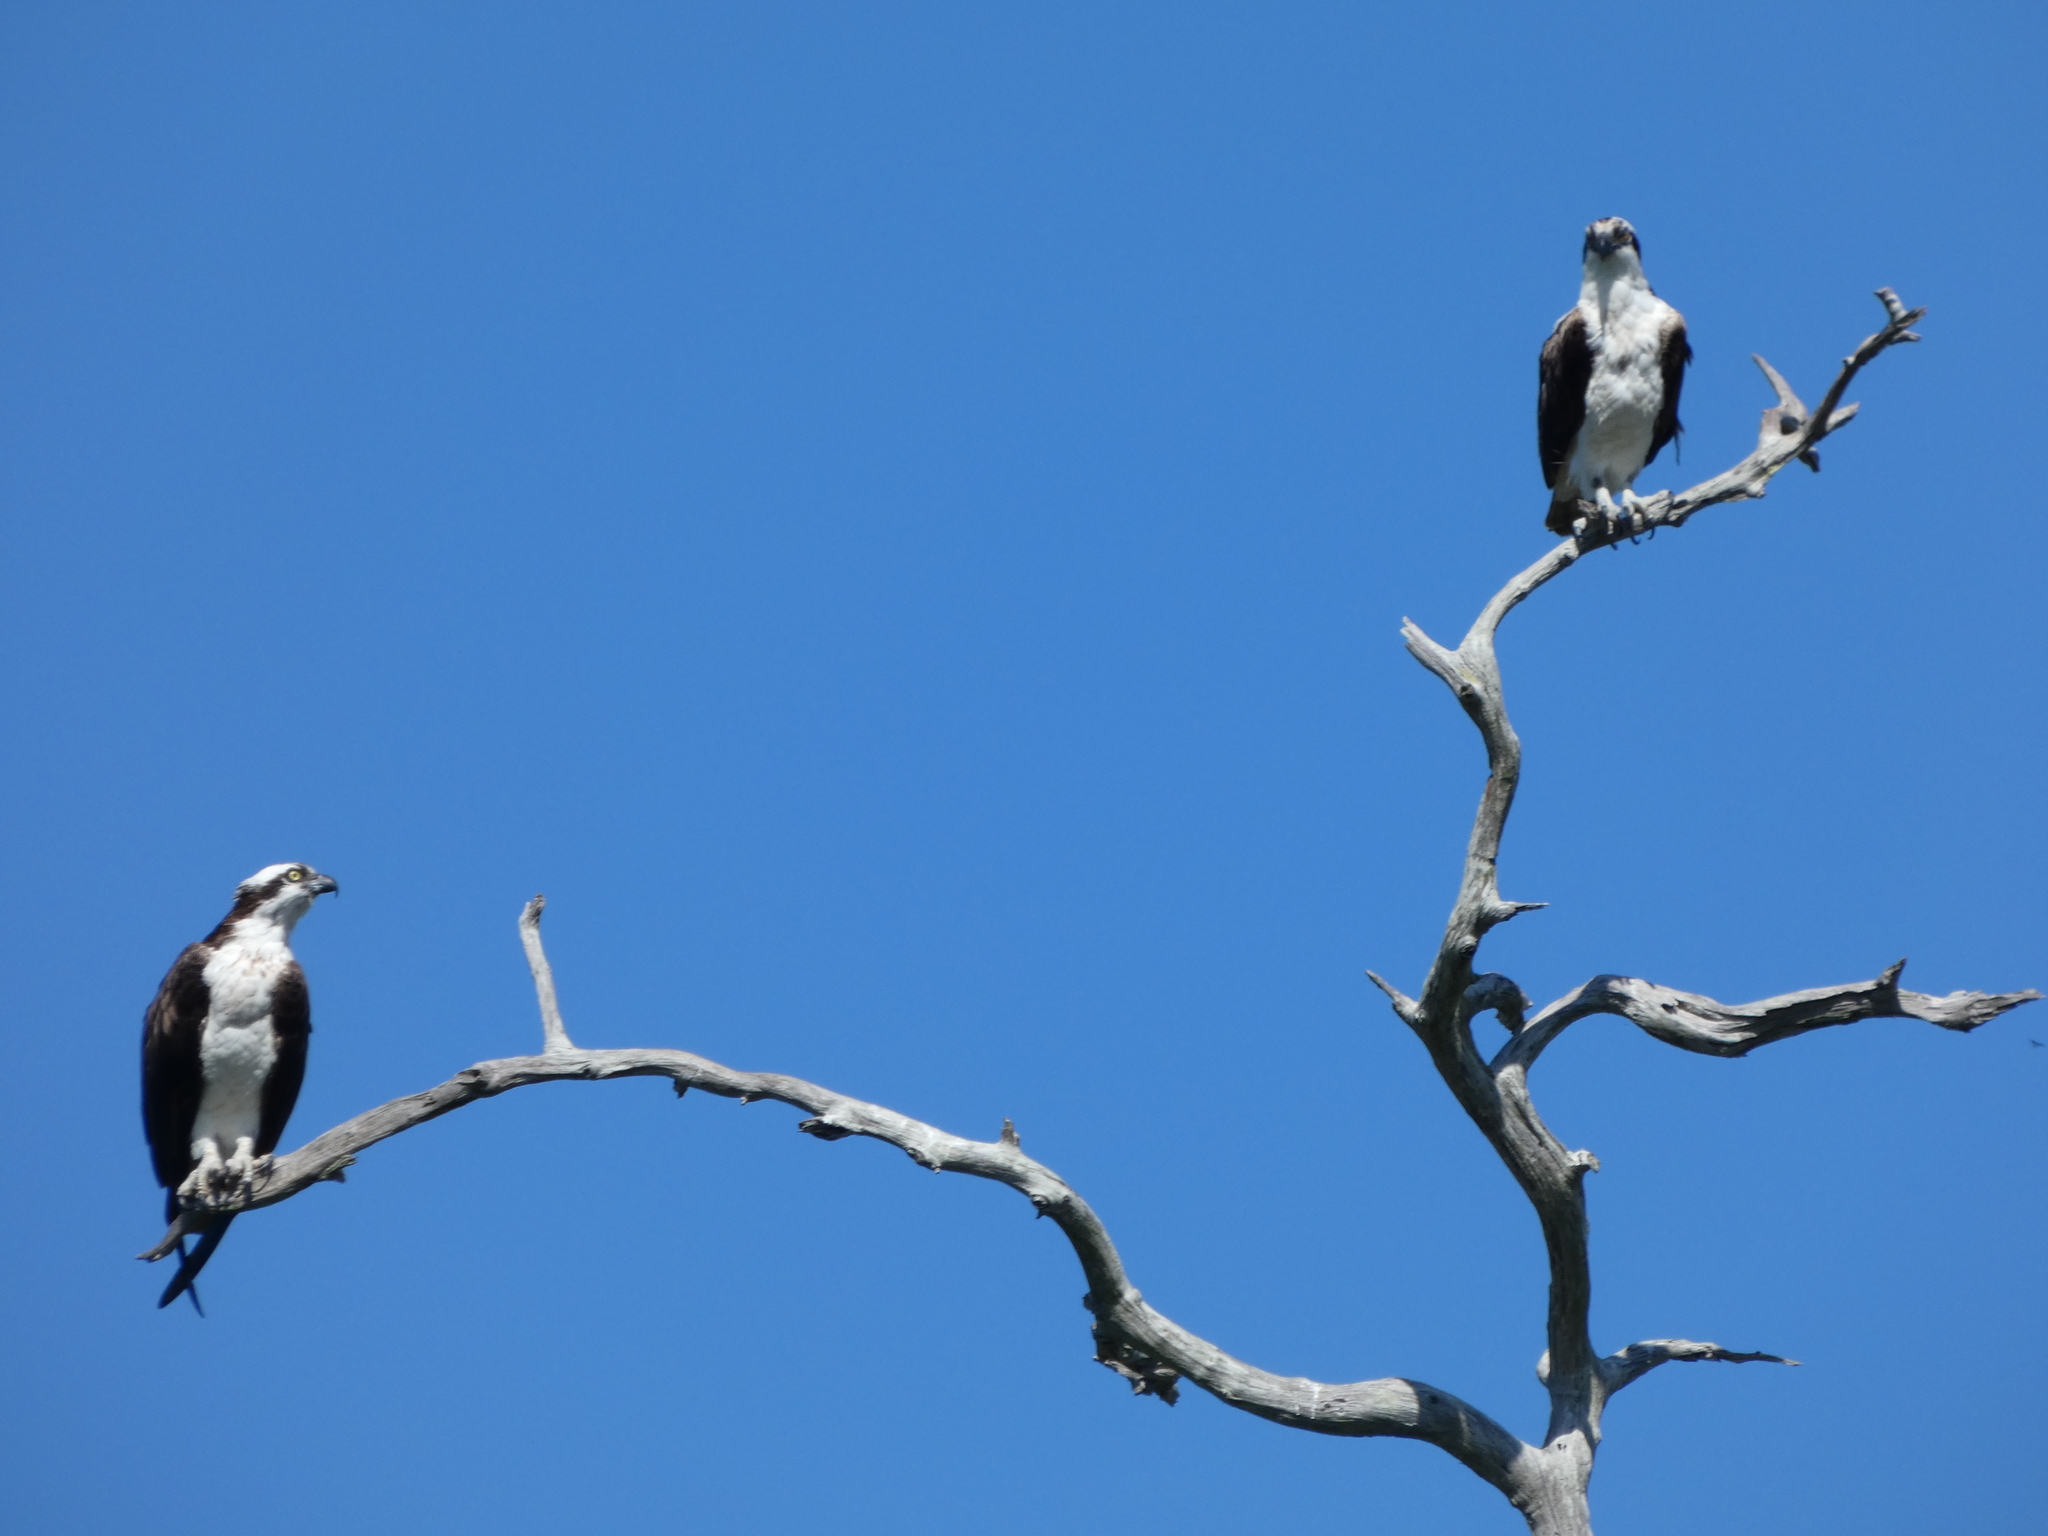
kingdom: Animalia
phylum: Chordata
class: Aves
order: Accipitriformes
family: Pandionidae
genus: Pandion
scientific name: Pandion haliaetus
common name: Osprey
